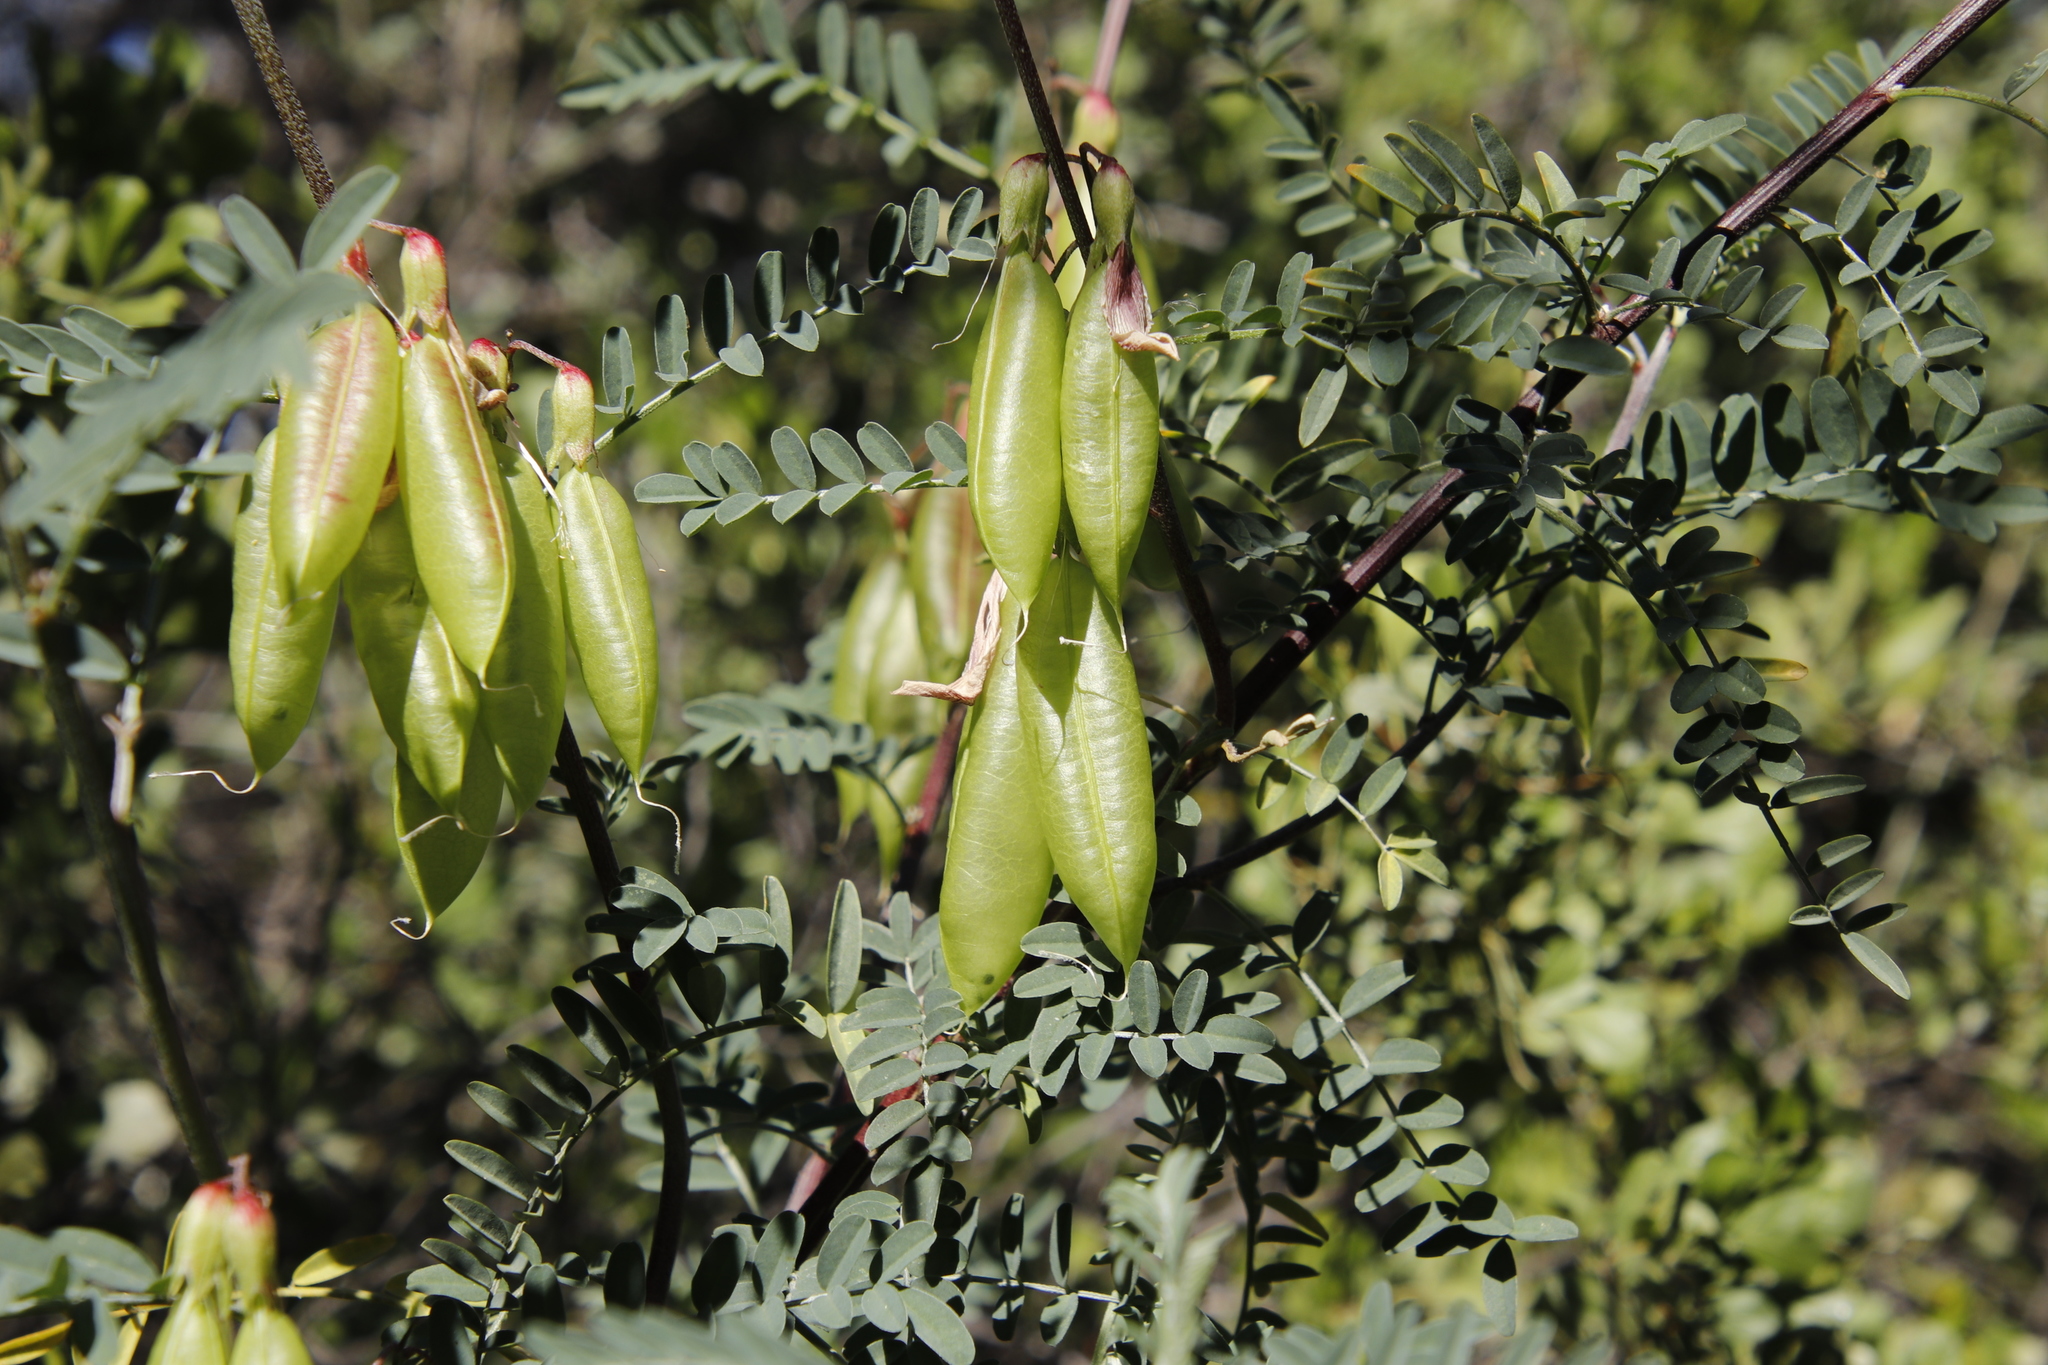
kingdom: Plantae
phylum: Tracheophyta
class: Magnoliopsida
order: Fabales
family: Fabaceae
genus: Lessertia
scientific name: Lessertia frutescens
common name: Balloon-pea
